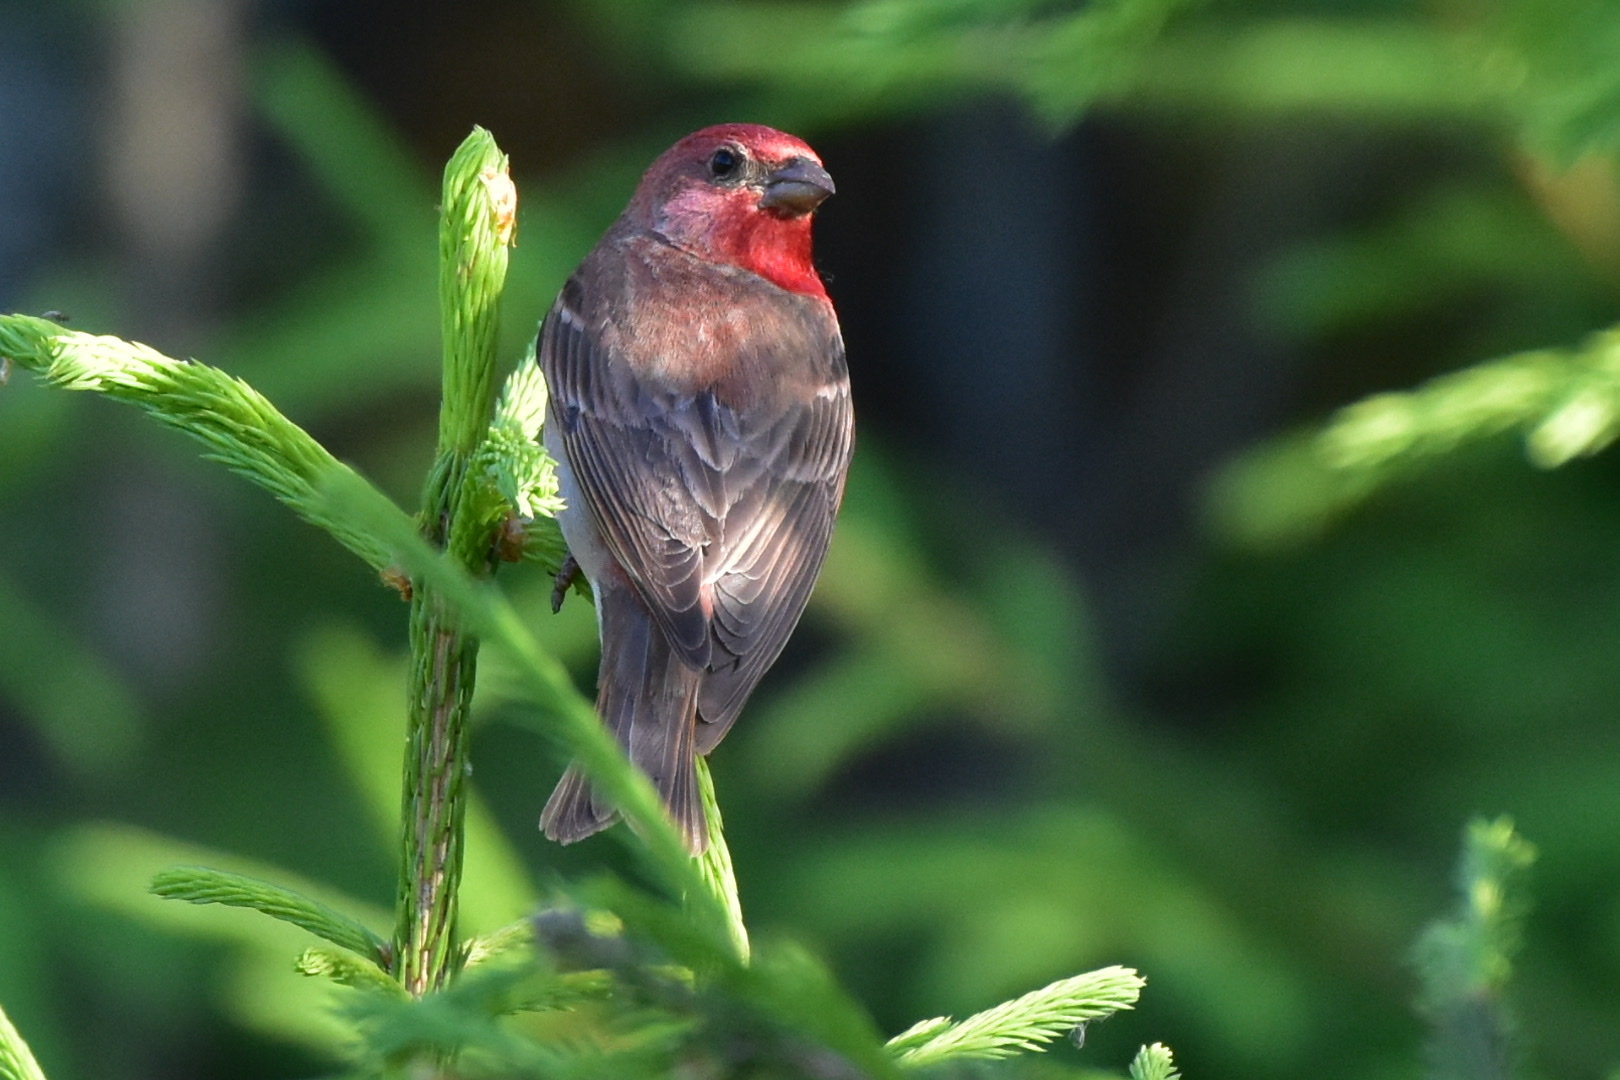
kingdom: Animalia
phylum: Chordata
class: Aves
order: Passeriformes
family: Fringillidae
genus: Carpodacus
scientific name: Carpodacus erythrinus
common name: Common rosefinch
